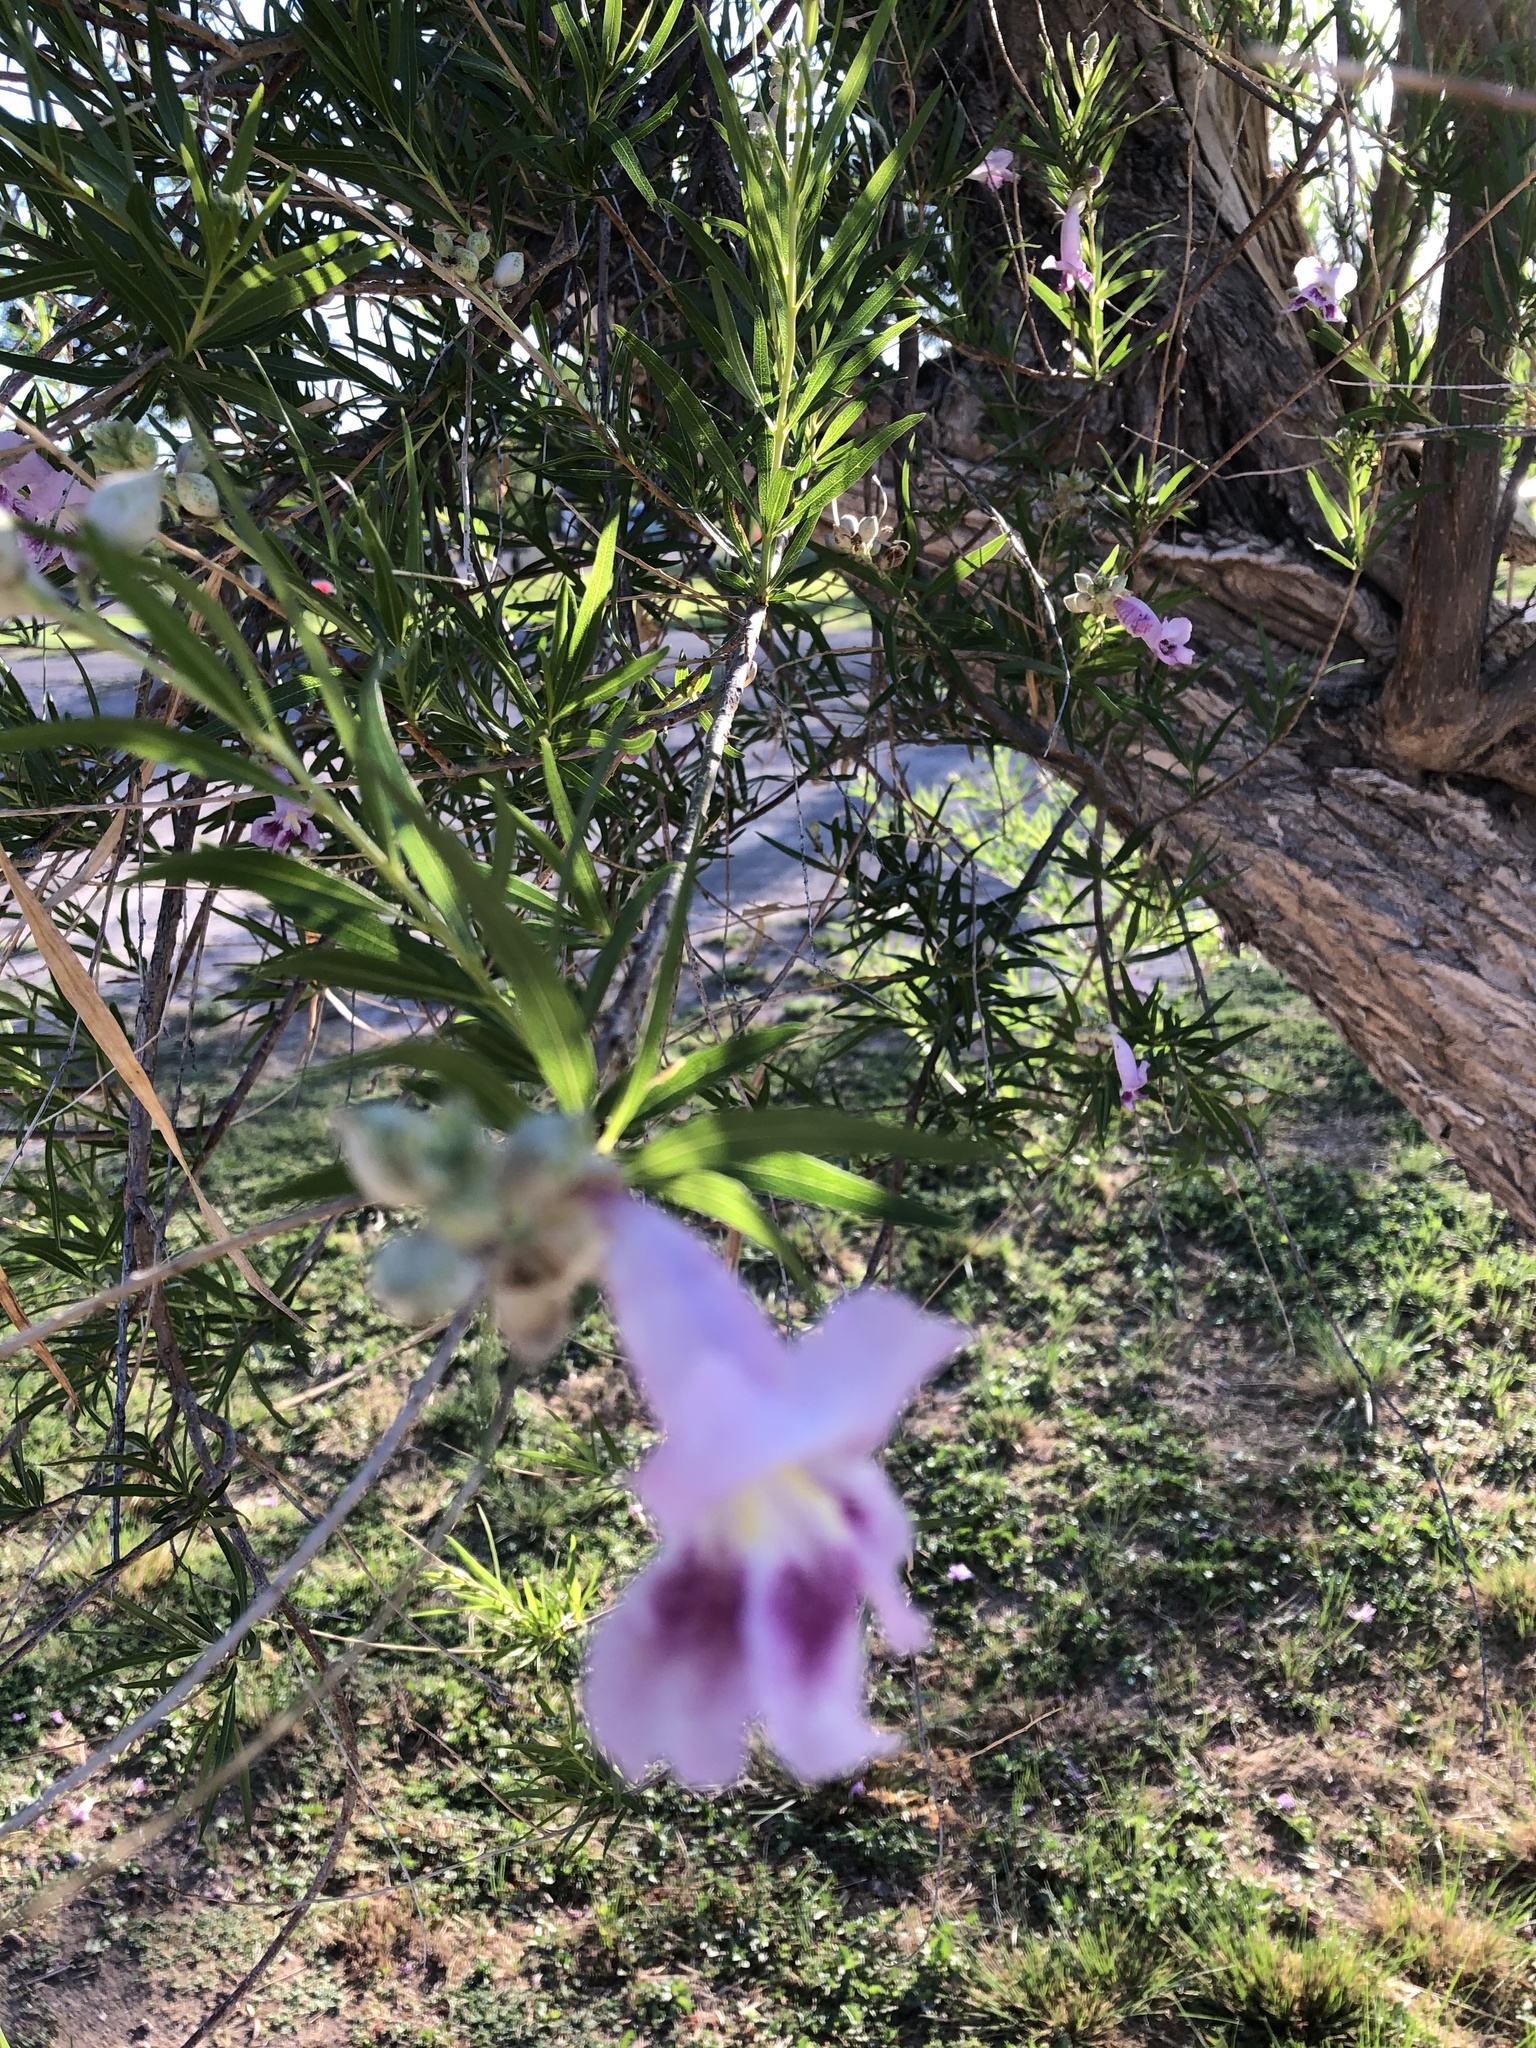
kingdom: Plantae
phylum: Tracheophyta
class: Magnoliopsida
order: Lamiales
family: Bignoniaceae
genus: Chilopsis
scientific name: Chilopsis linearis
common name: Desert-willow
